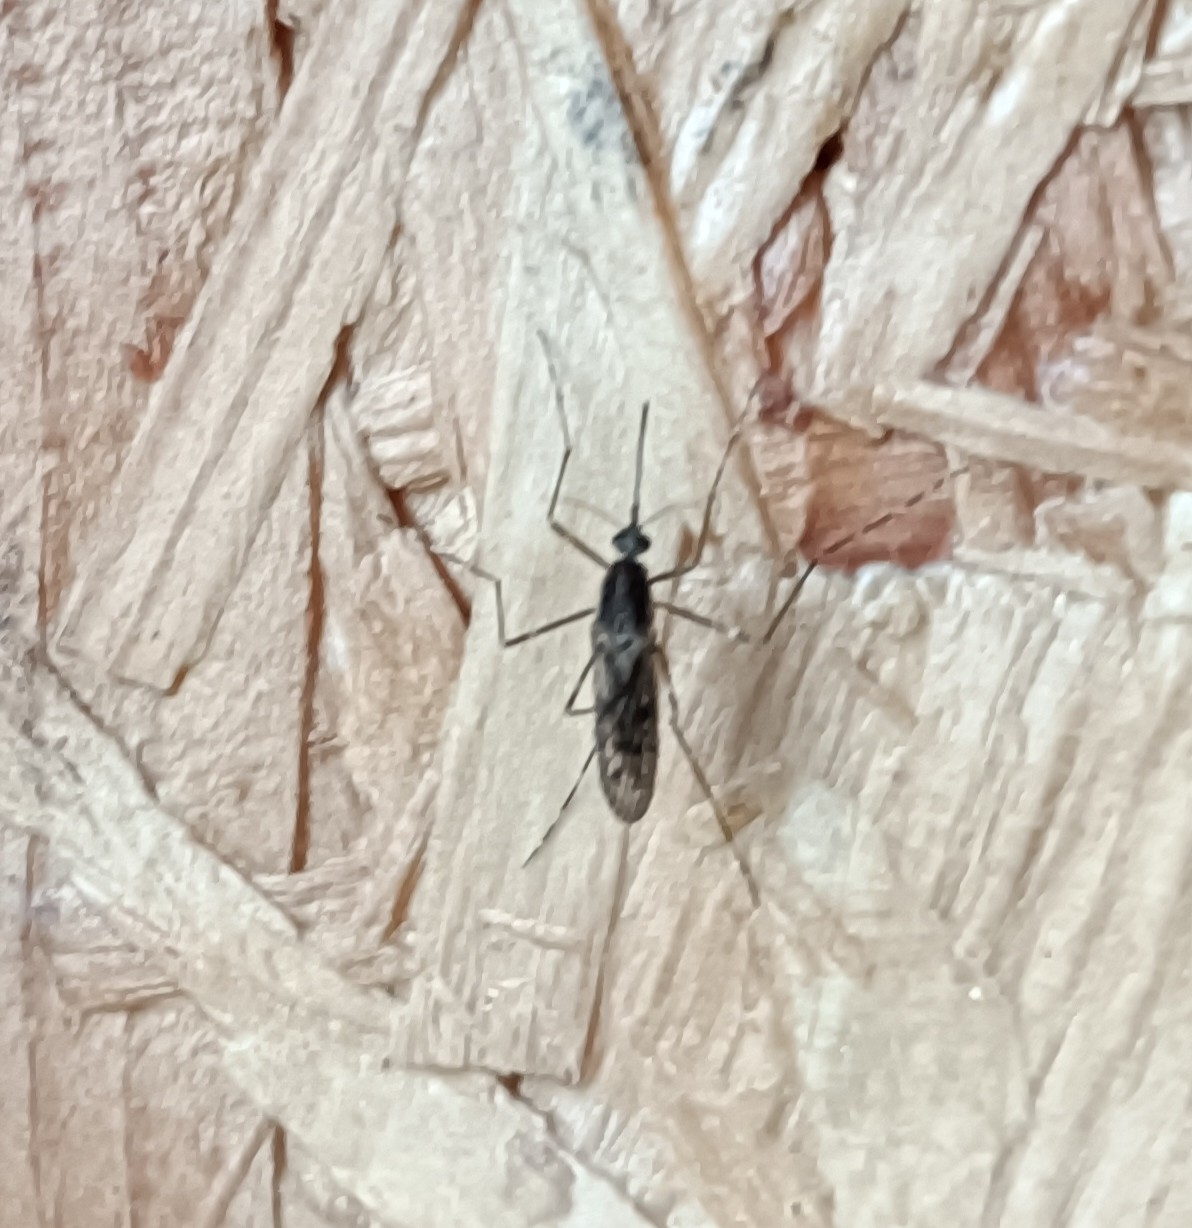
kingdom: Animalia
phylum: Arthropoda
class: Insecta
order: Diptera
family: Culicidae
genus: Culiseta
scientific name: Culiseta annulata
